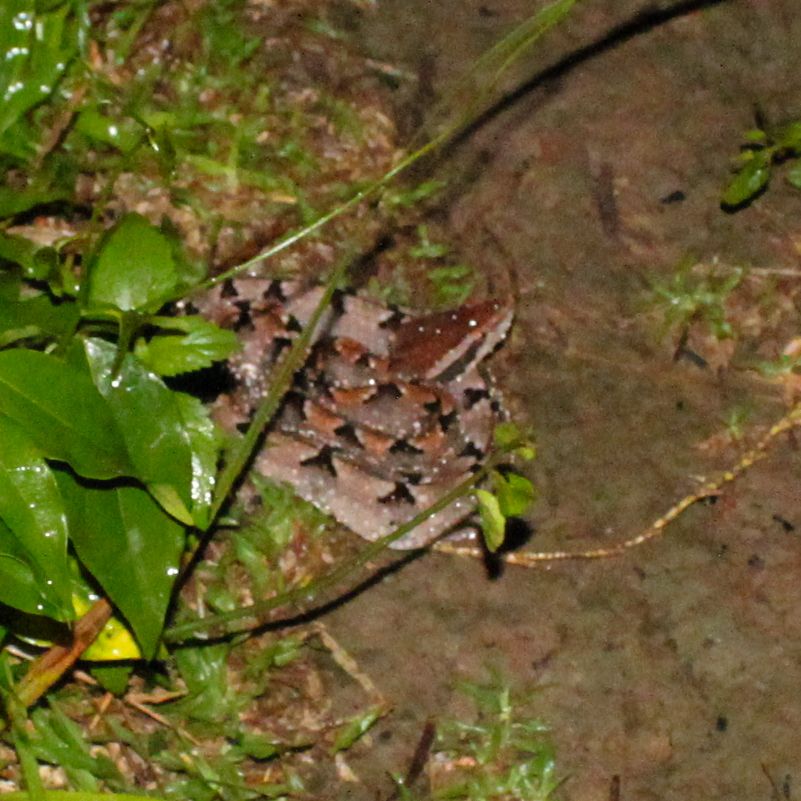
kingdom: Animalia
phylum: Chordata
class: Squamata
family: Viperidae
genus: Calloselasma
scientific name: Calloselasma rhodostoma
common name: Malayan pit viper
